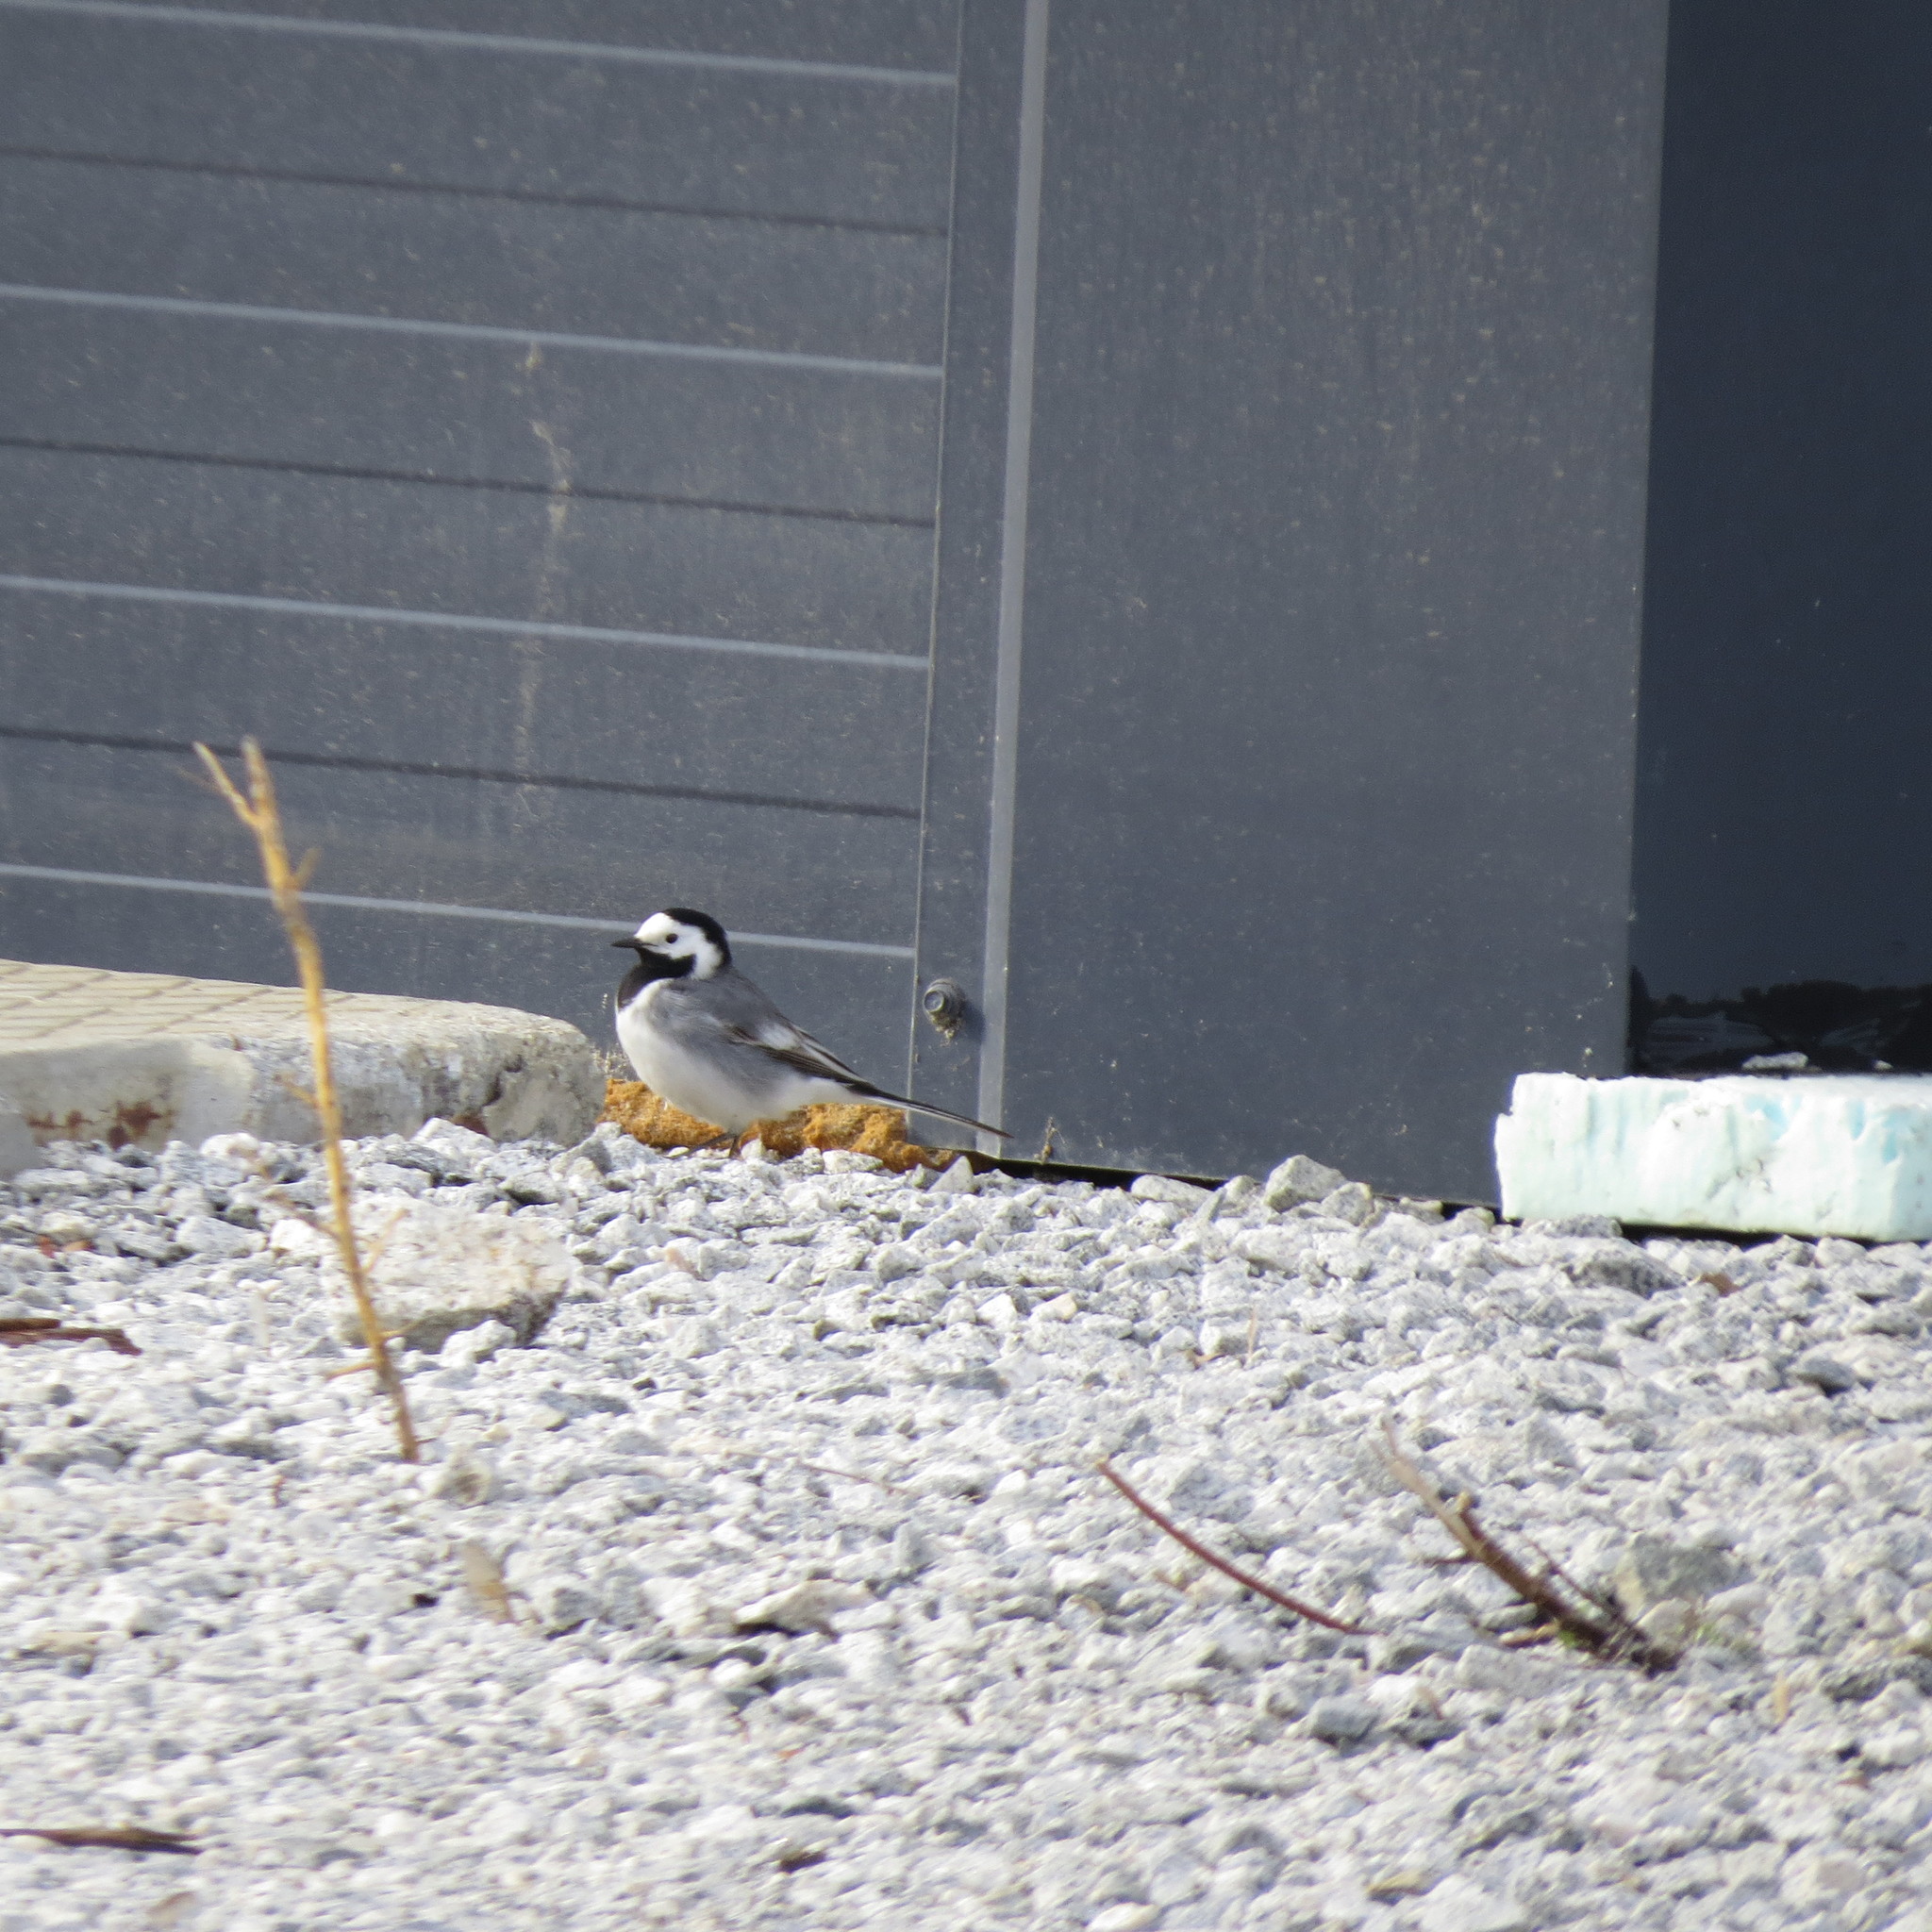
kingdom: Animalia
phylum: Chordata
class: Aves
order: Passeriformes
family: Motacillidae
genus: Motacilla
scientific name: Motacilla alba
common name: White wagtail
